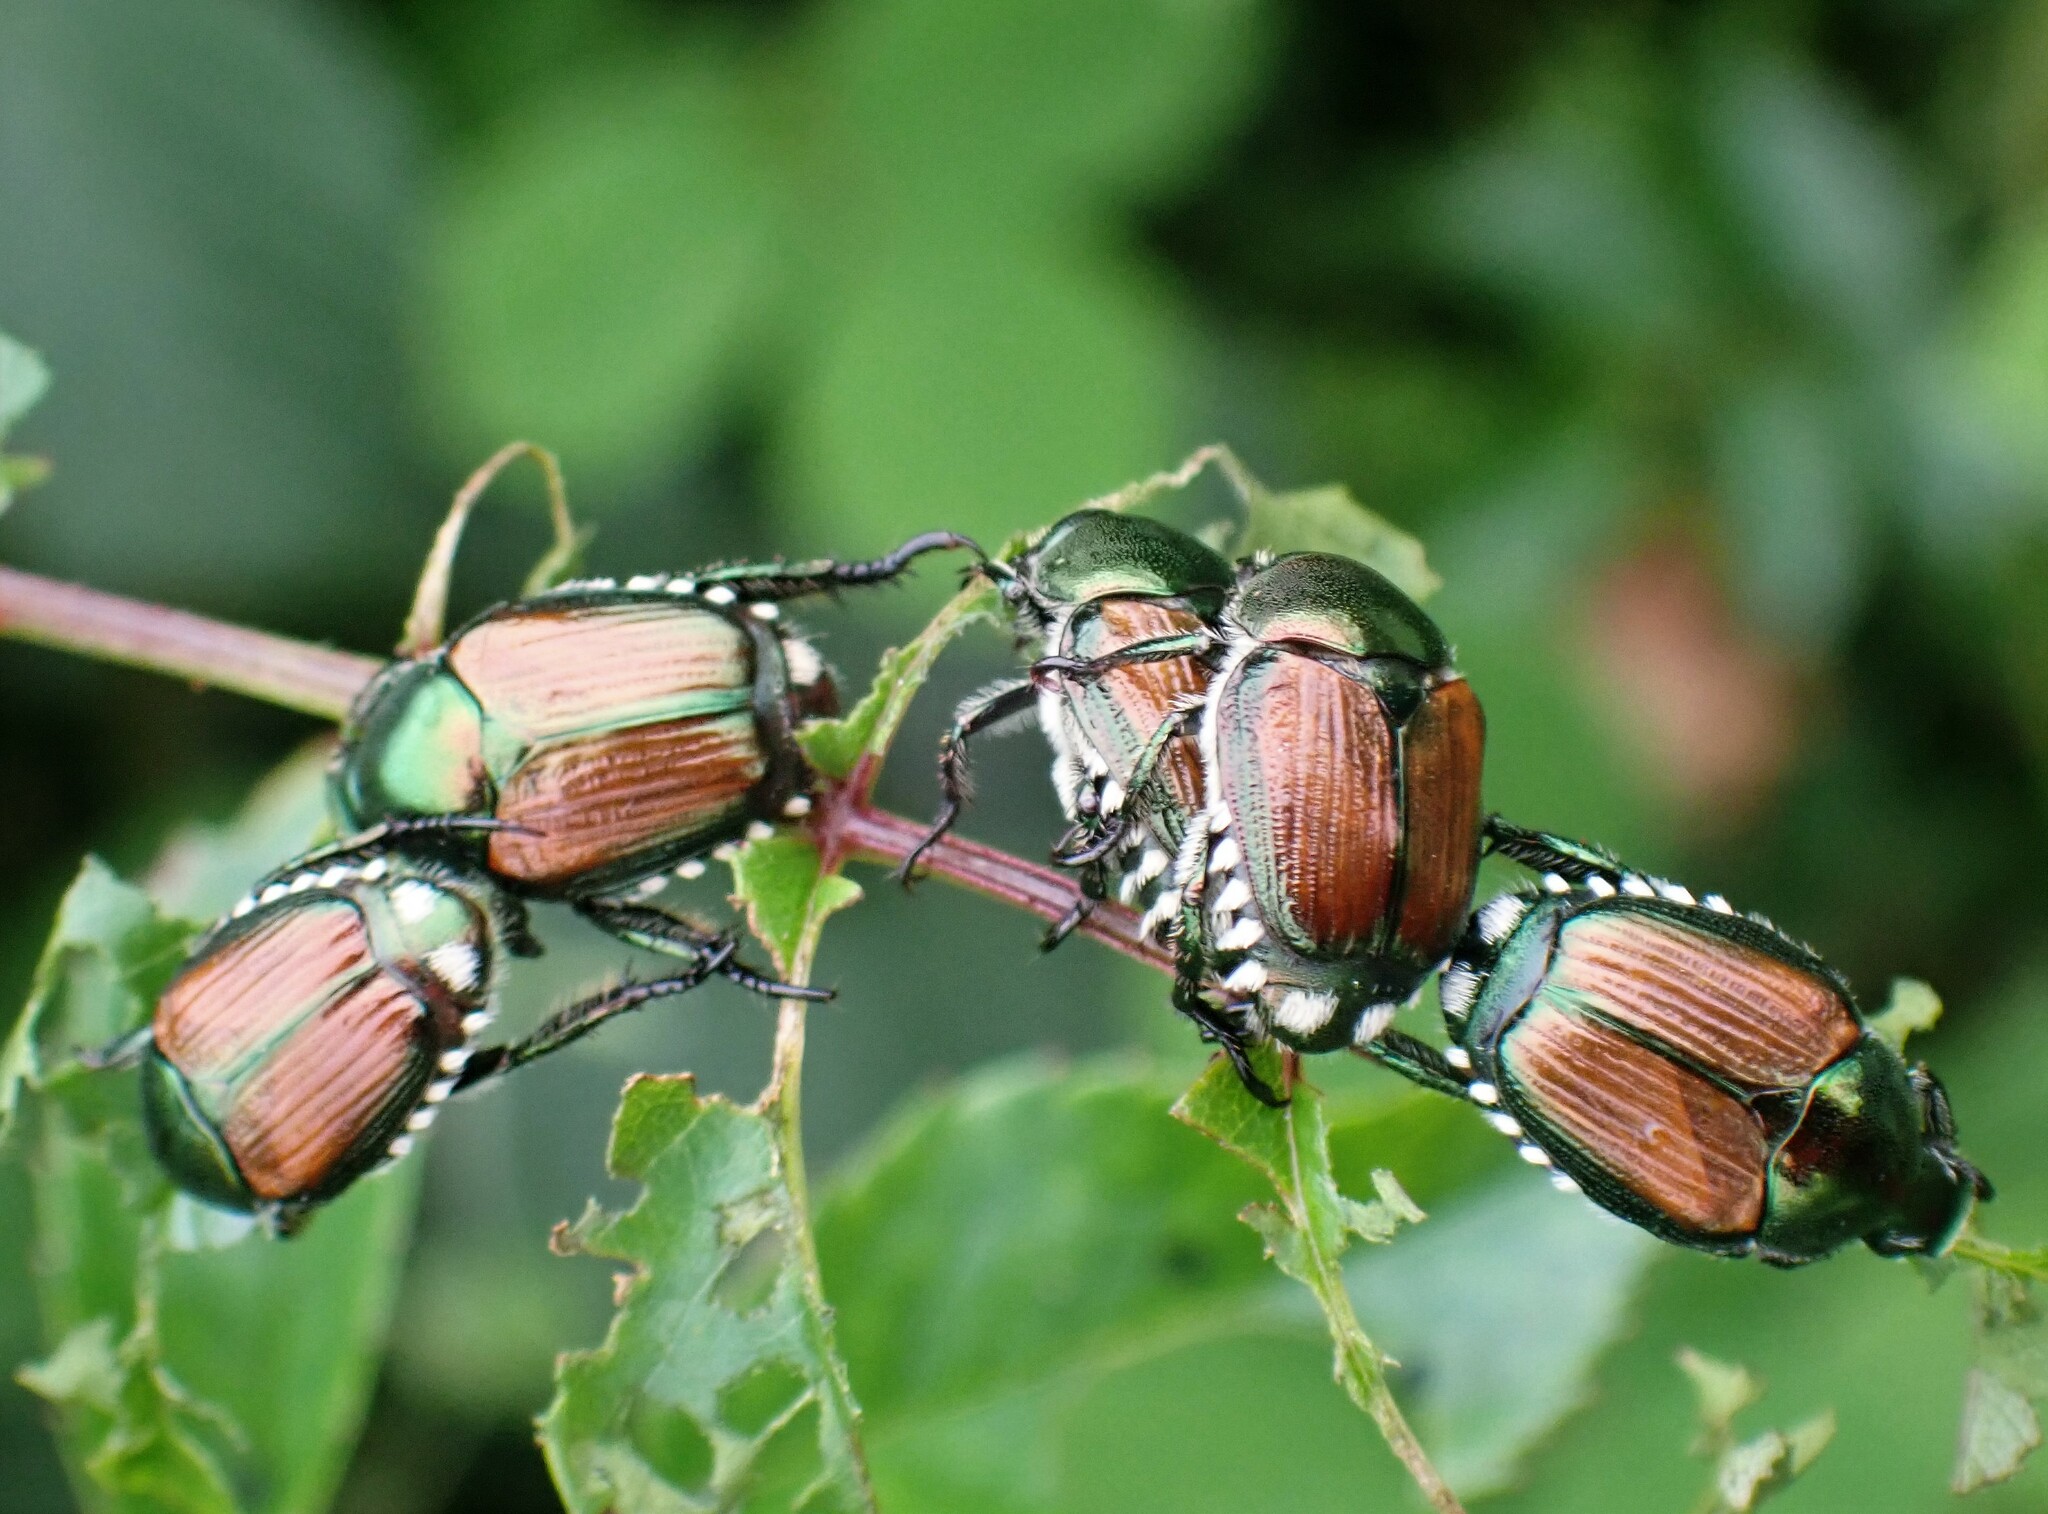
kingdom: Animalia
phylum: Arthropoda
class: Insecta
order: Coleoptera
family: Scarabaeidae
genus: Popillia
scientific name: Popillia japonica
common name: Japanese beetle
